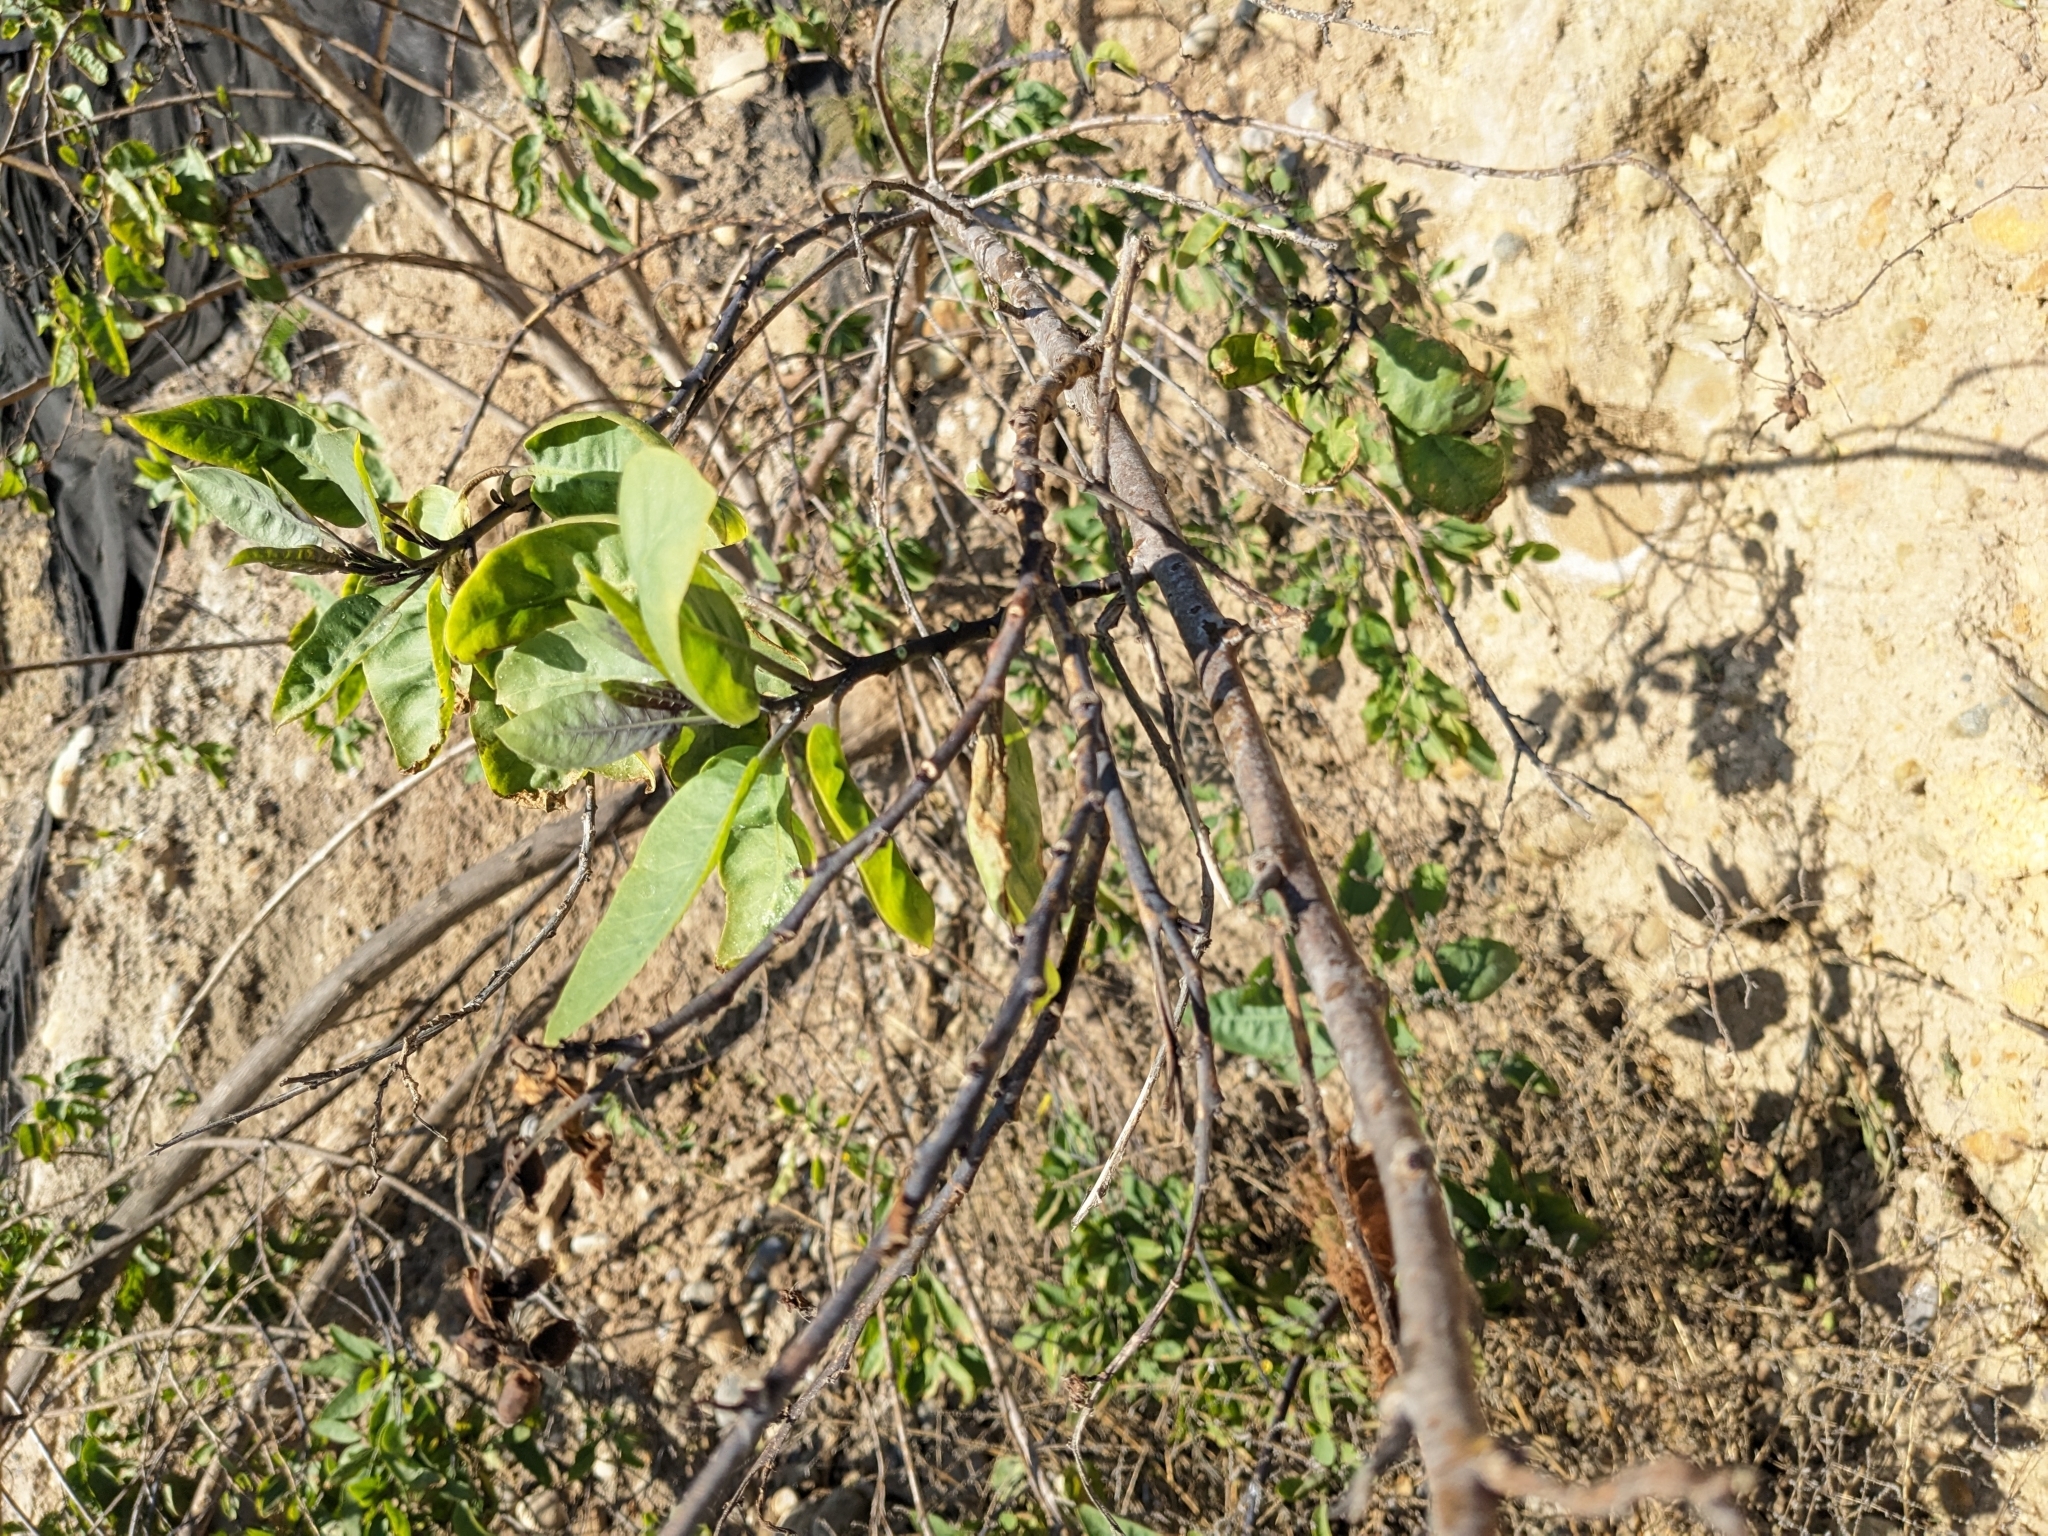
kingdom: Plantae
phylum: Tracheophyta
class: Magnoliopsida
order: Solanales
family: Solanaceae
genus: Nicotiana
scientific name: Nicotiana glauca
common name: Tree tobacco
